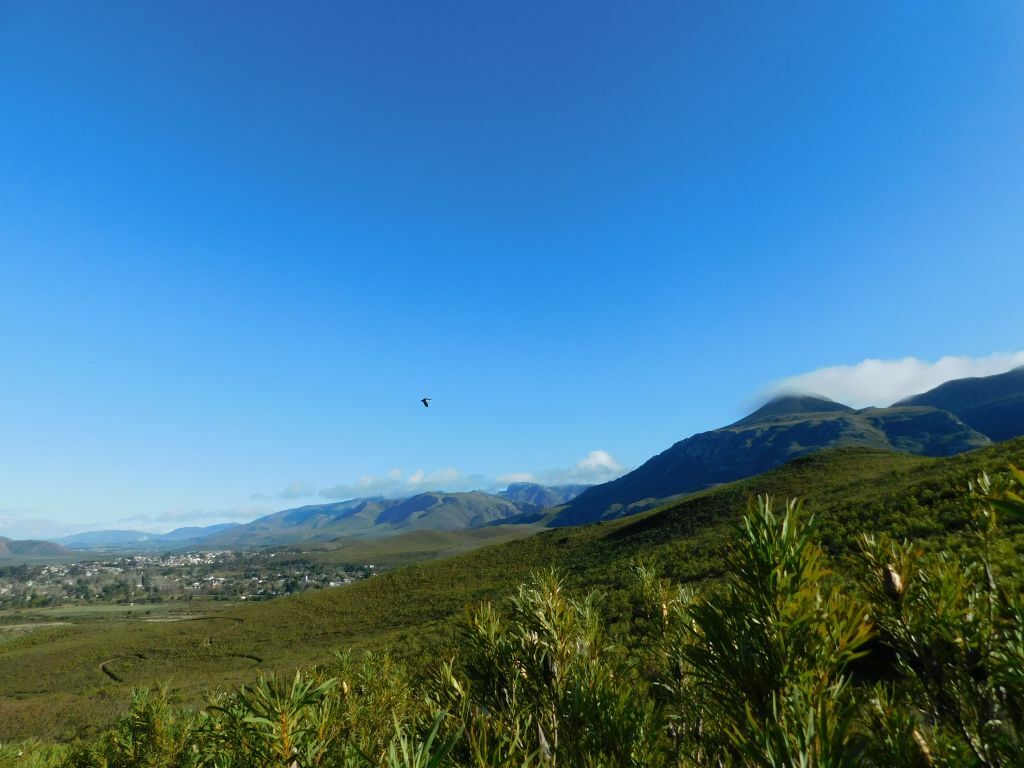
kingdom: Animalia
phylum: Chordata
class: Aves
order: Anseriformes
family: Anatidae
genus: Plectropterus
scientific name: Plectropterus gambensis
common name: Spur-winged goose
